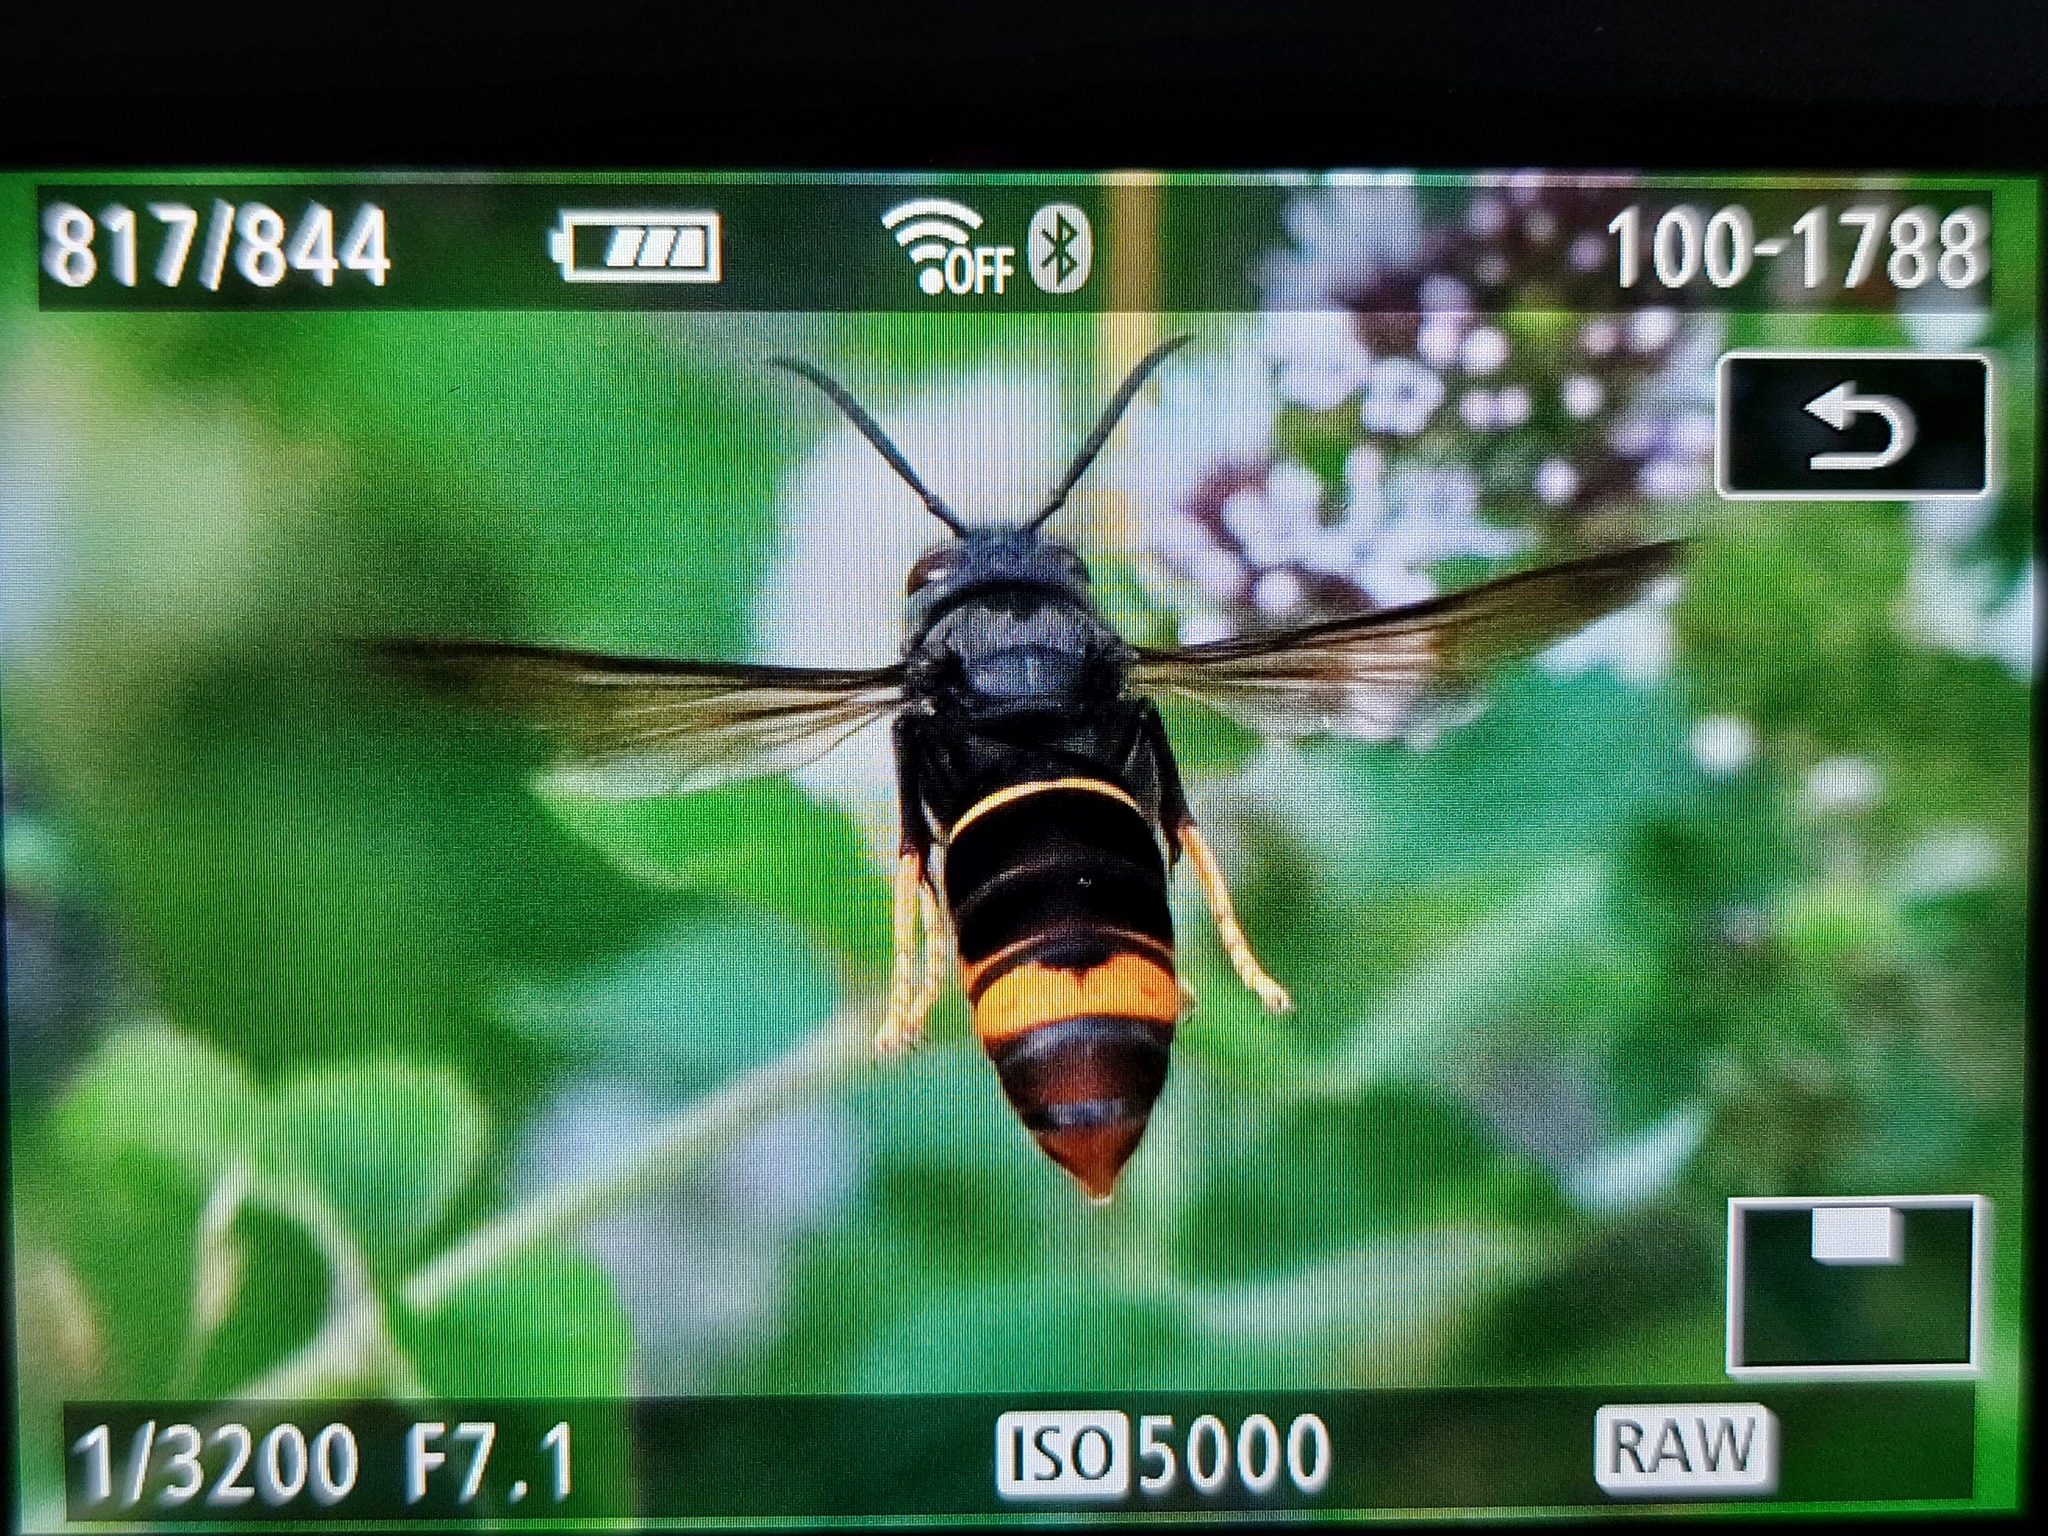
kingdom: Animalia
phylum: Arthropoda
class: Insecta
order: Hymenoptera
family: Vespidae
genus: Vespa
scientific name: Vespa velutina
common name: Asian hornet
